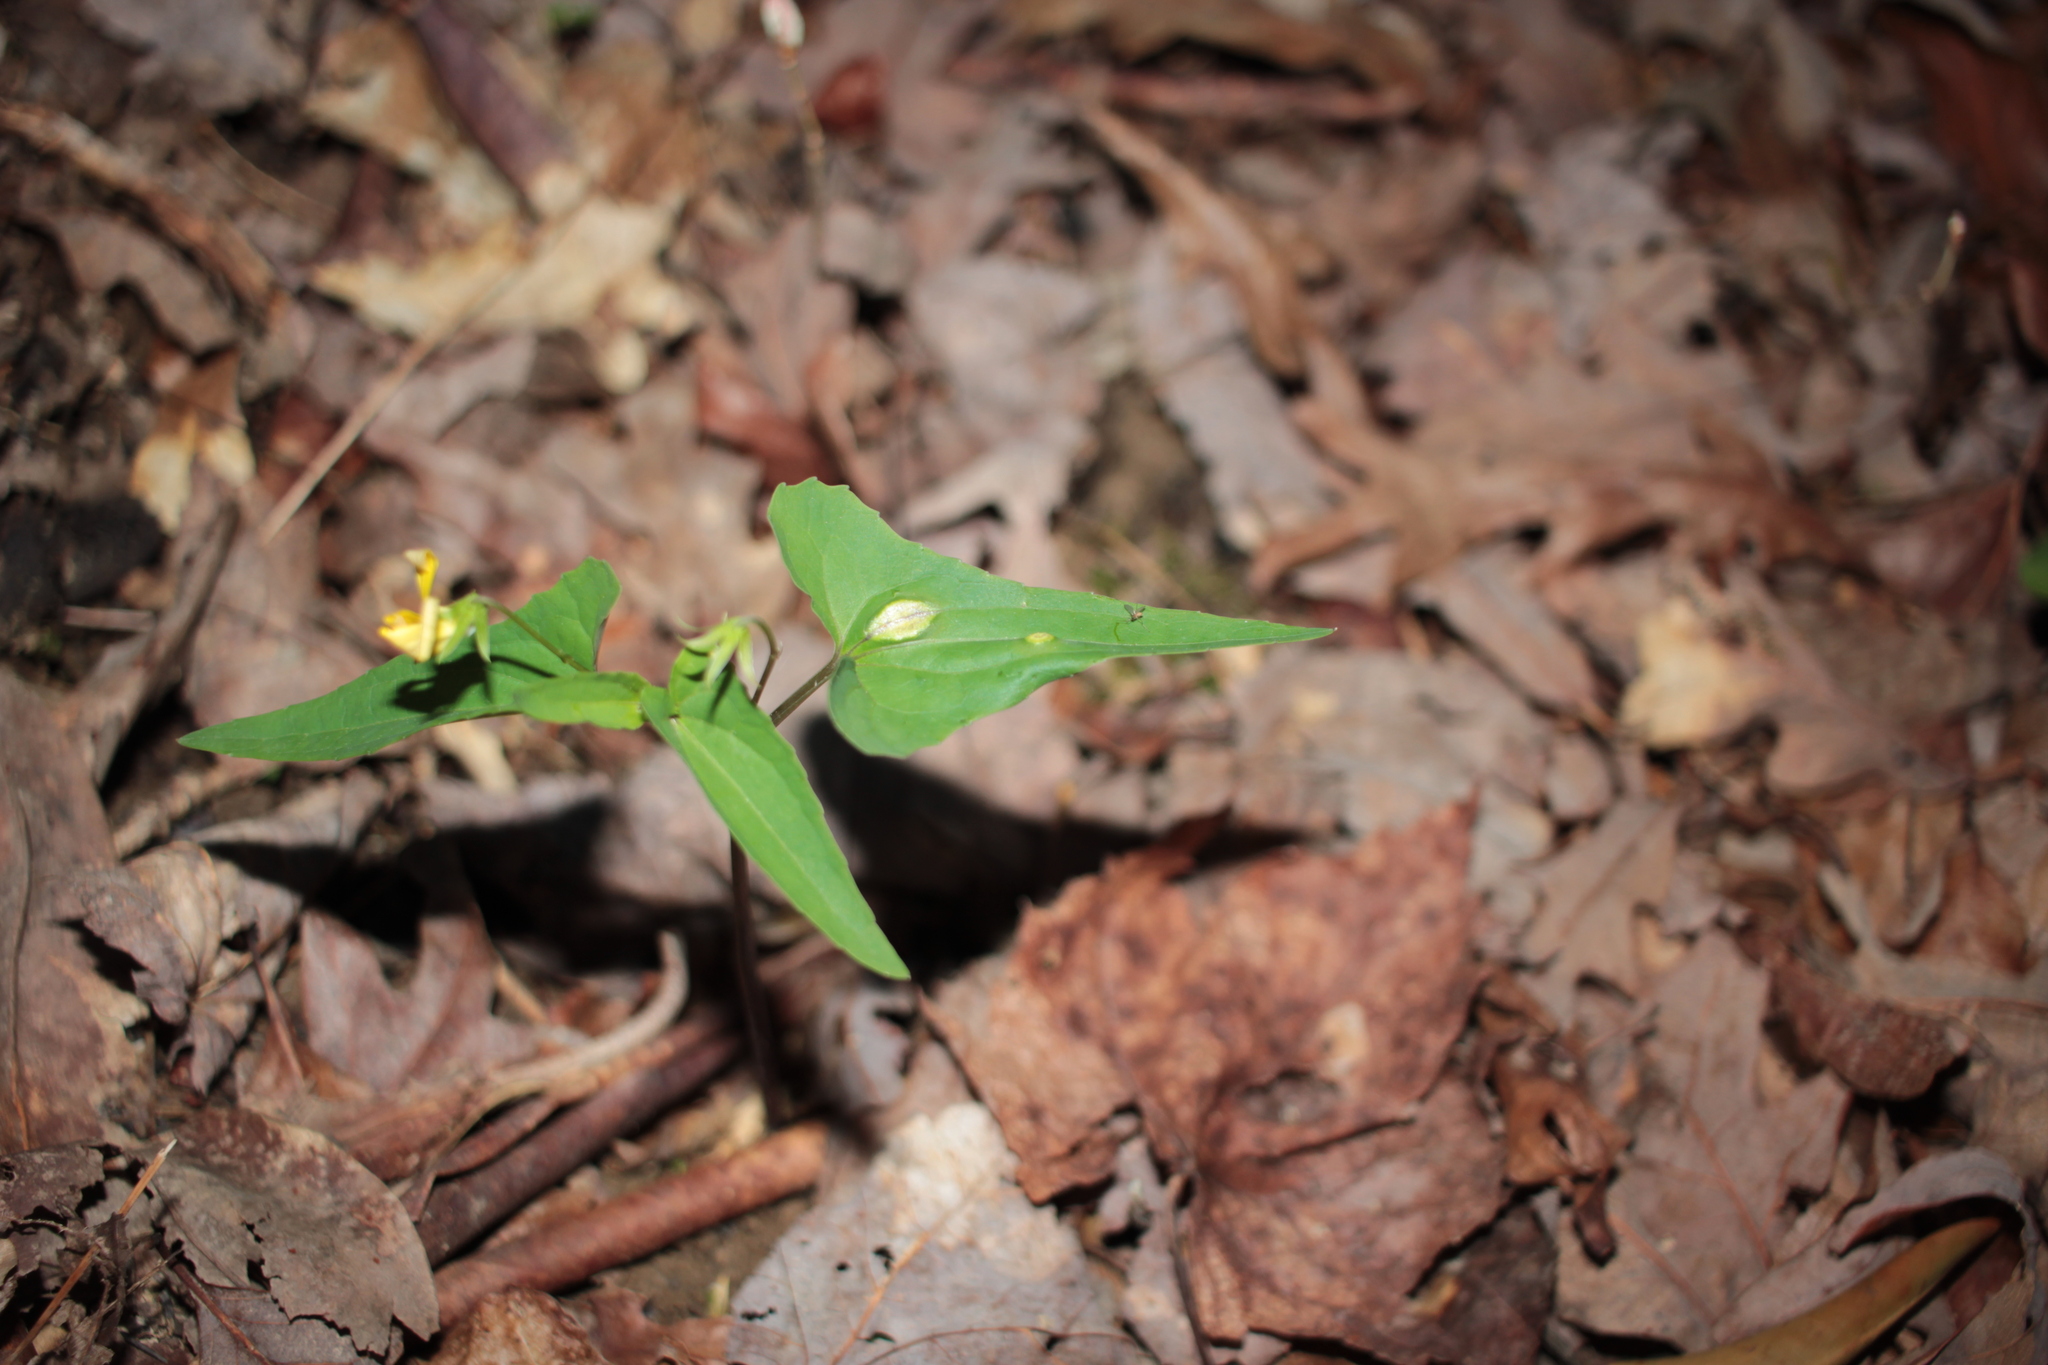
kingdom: Plantae
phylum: Tracheophyta
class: Magnoliopsida
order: Malpighiales
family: Violaceae
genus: Viola
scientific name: Viola hastata
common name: Spear-leaf violet
